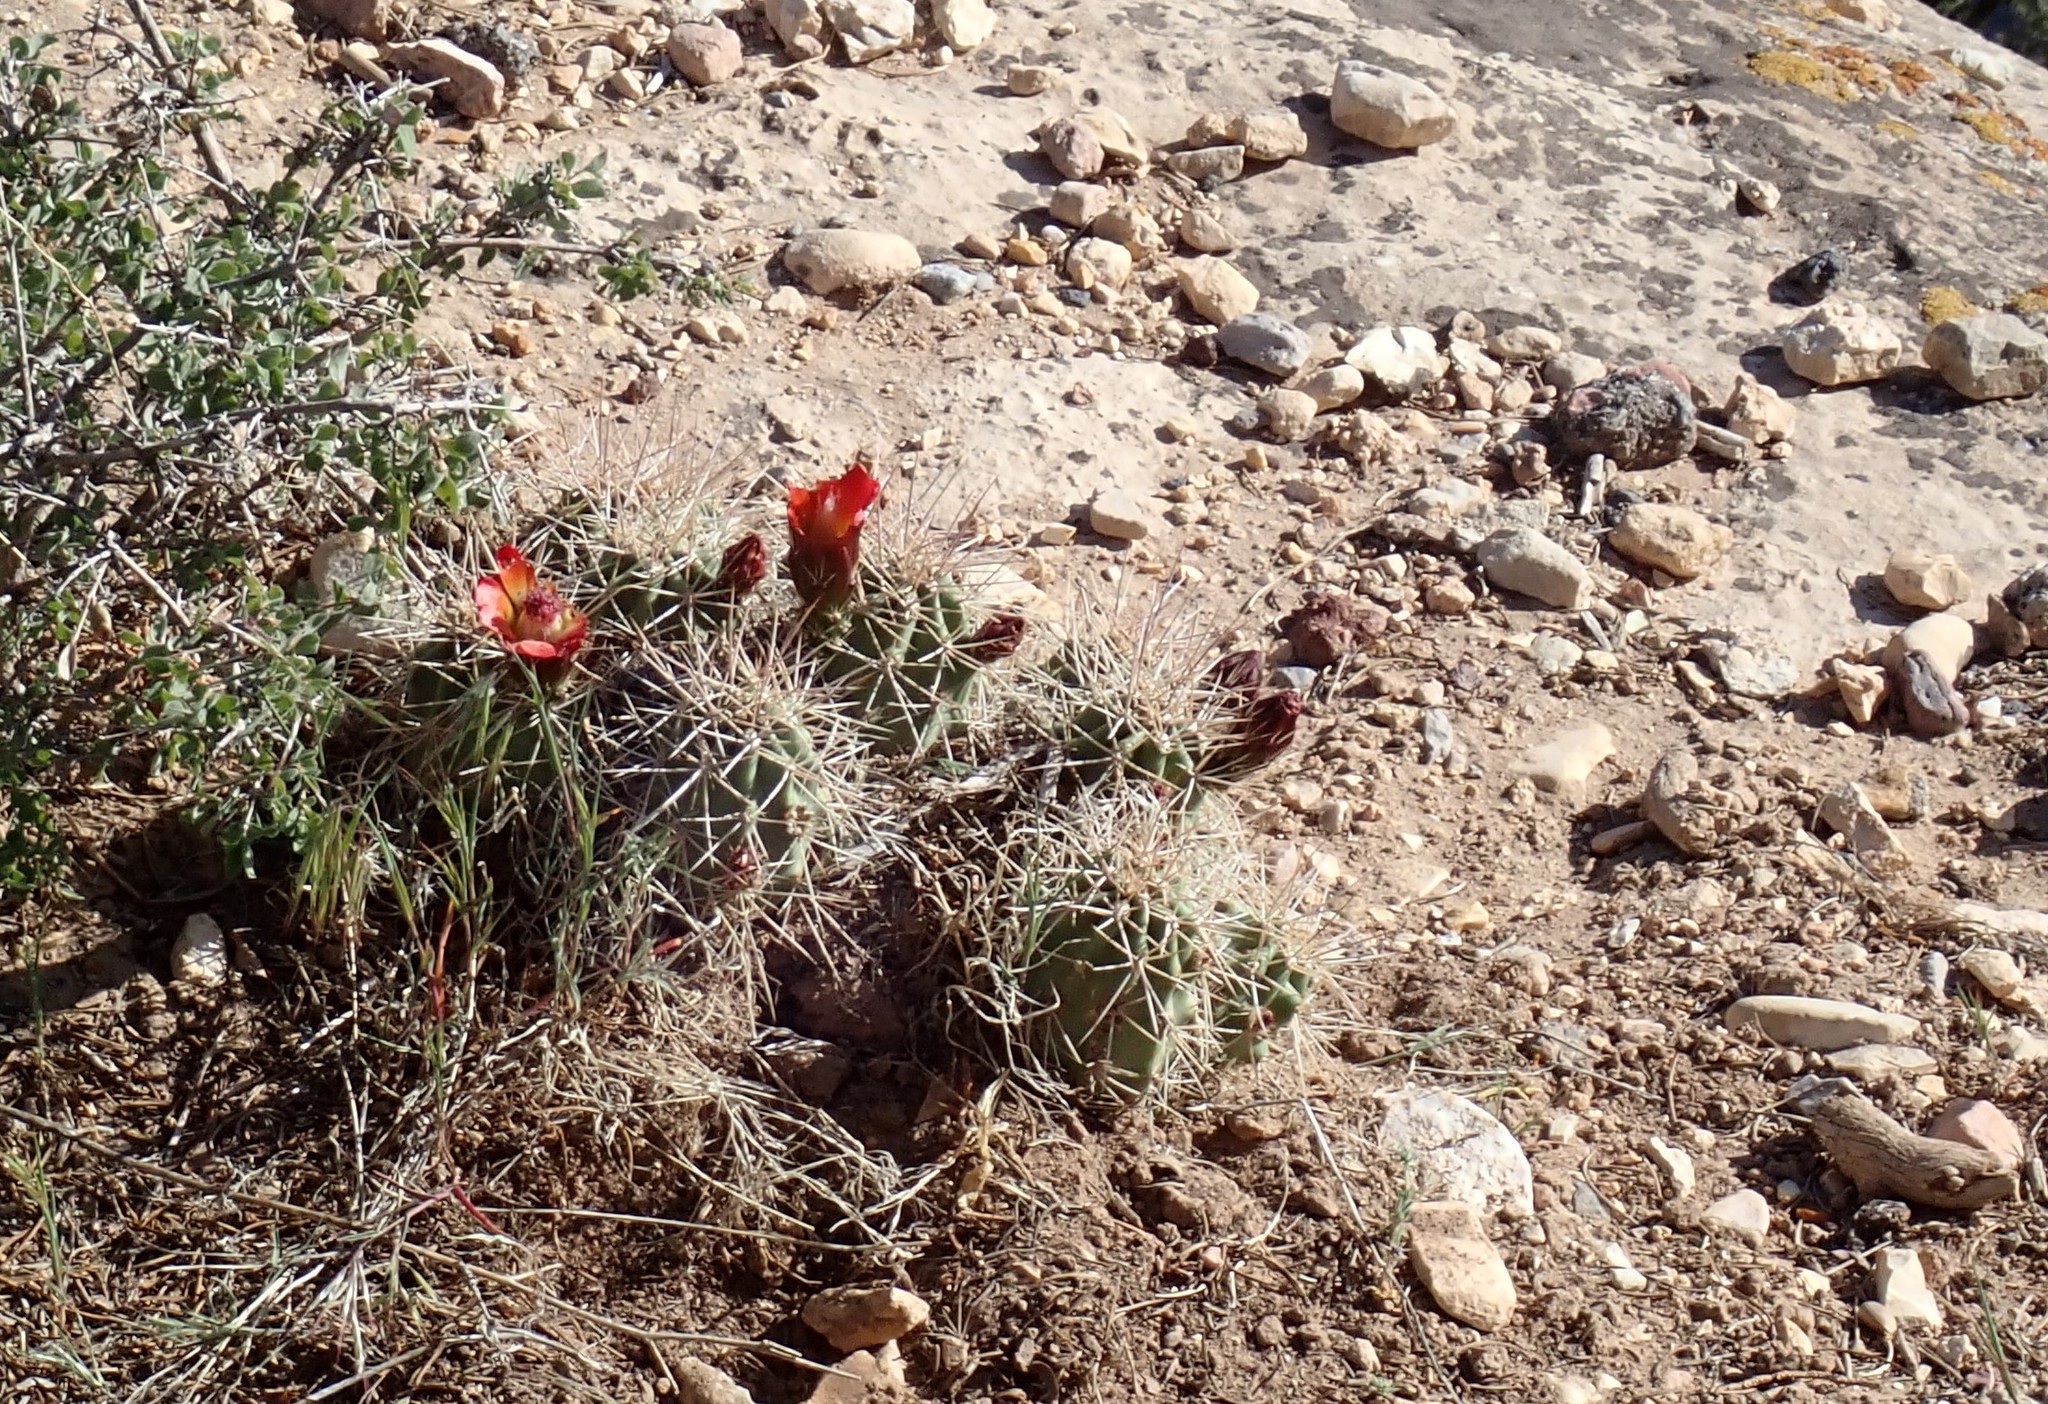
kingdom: Plantae
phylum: Tracheophyta
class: Magnoliopsida
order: Caryophyllales
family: Cactaceae
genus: Echinocereus
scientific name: Echinocereus triglochidiatus
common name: Claretcup hedgehog
